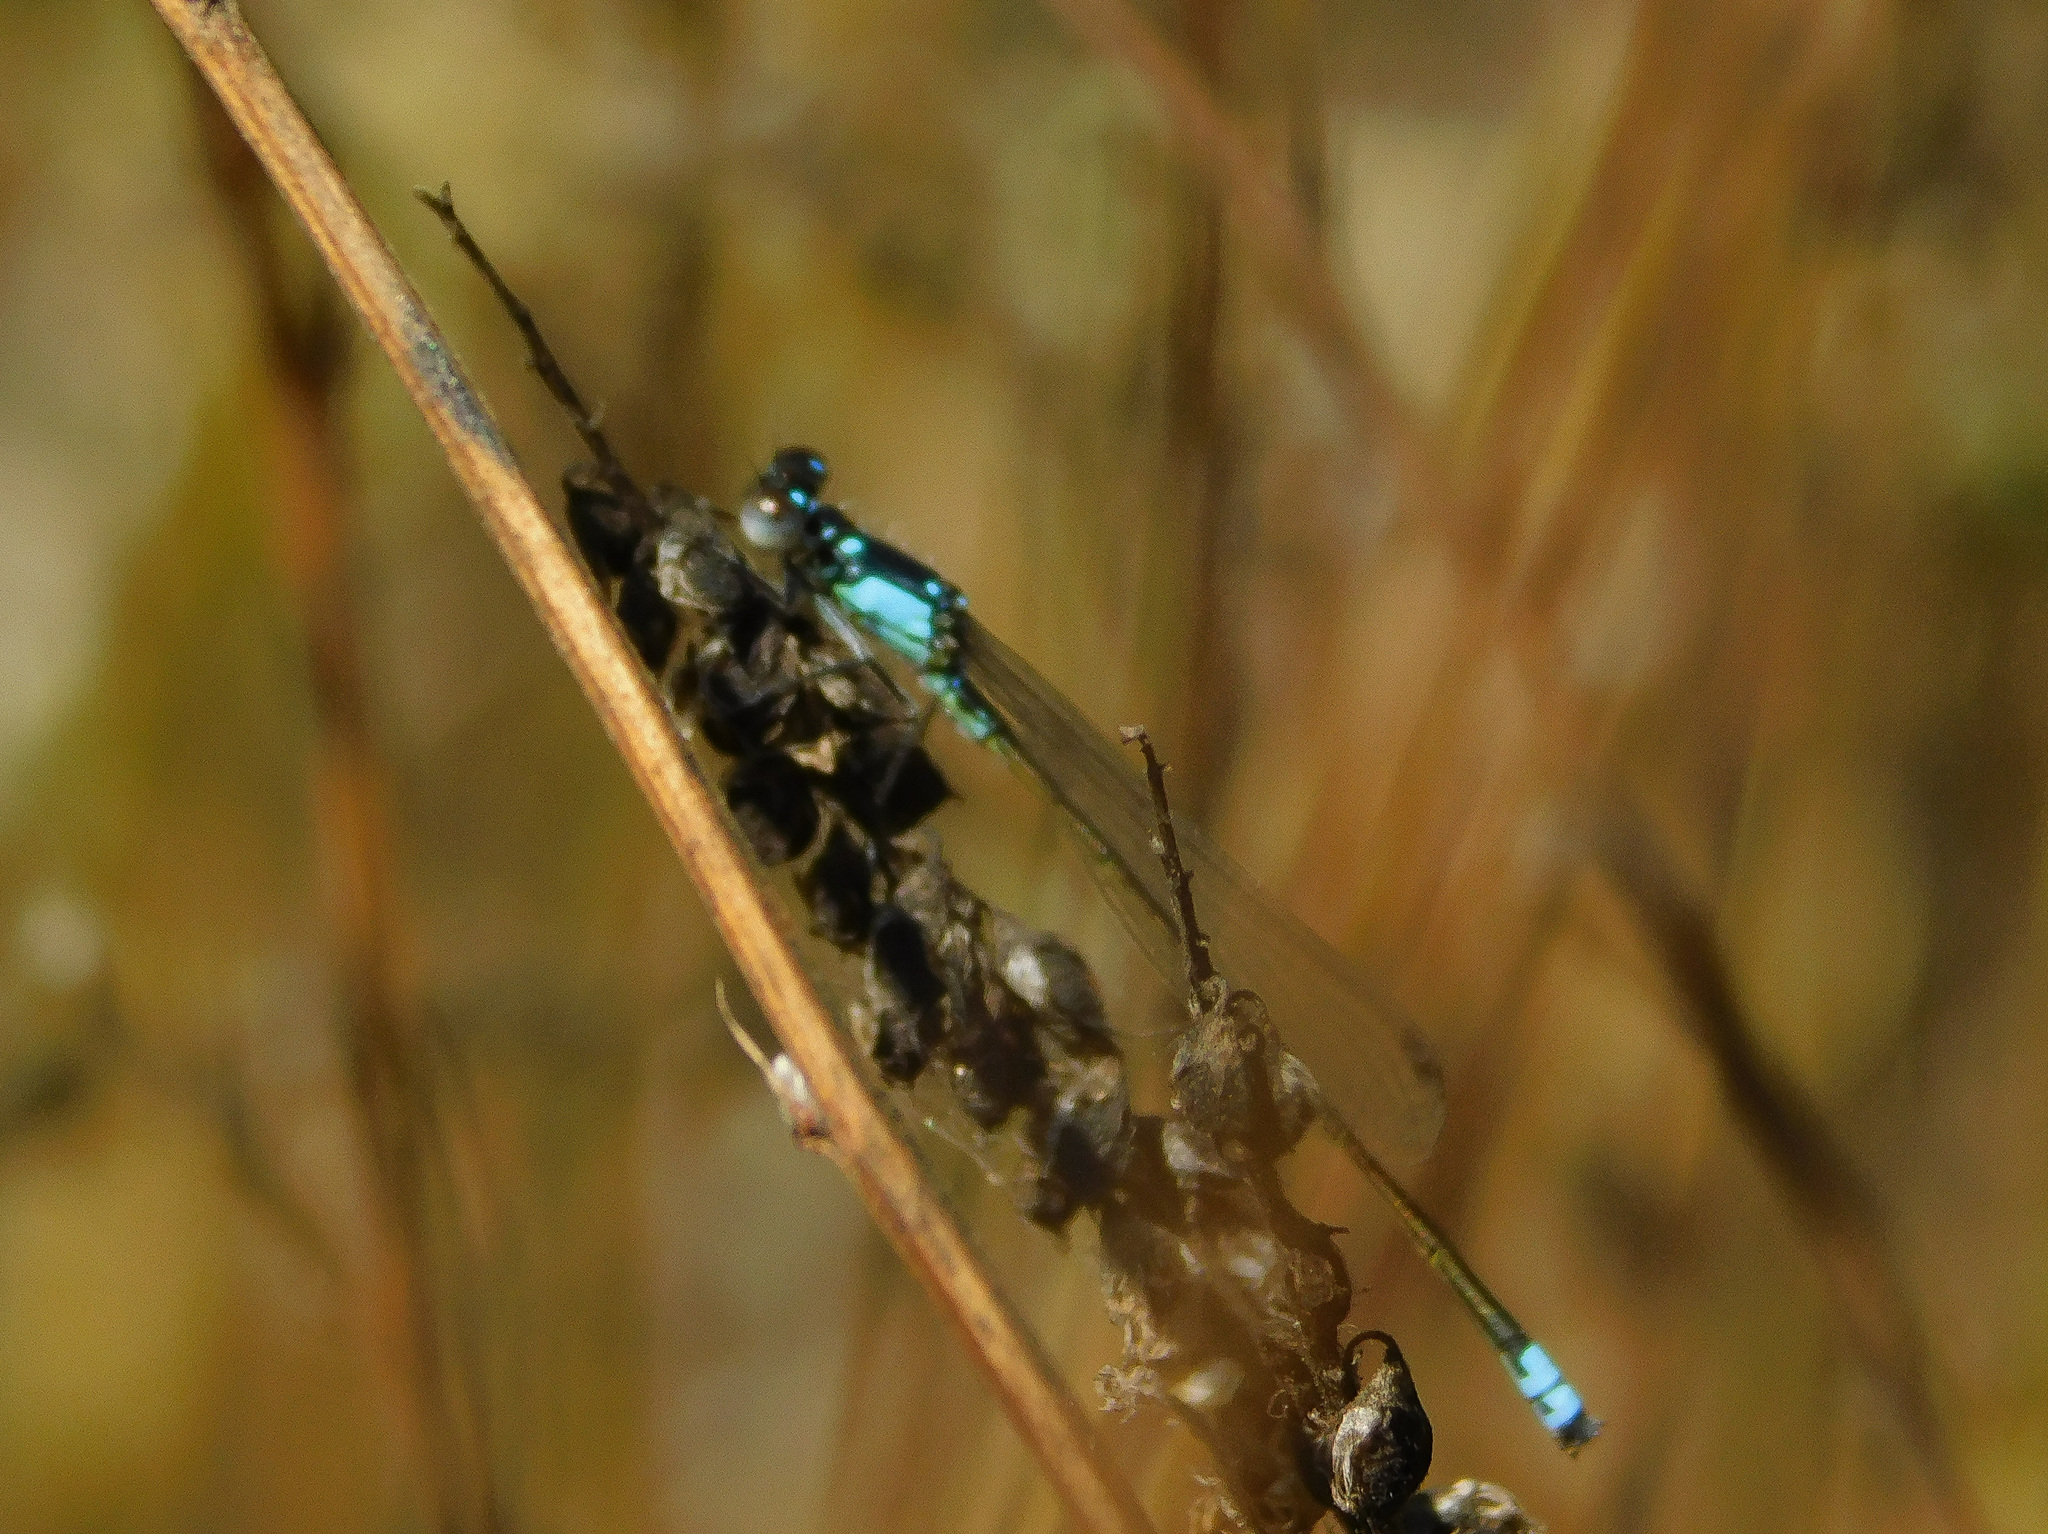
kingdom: Animalia
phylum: Arthropoda
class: Insecta
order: Odonata
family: Coenagrionidae
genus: Ischnura
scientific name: Ischnura cervula
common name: Pacific forktail
